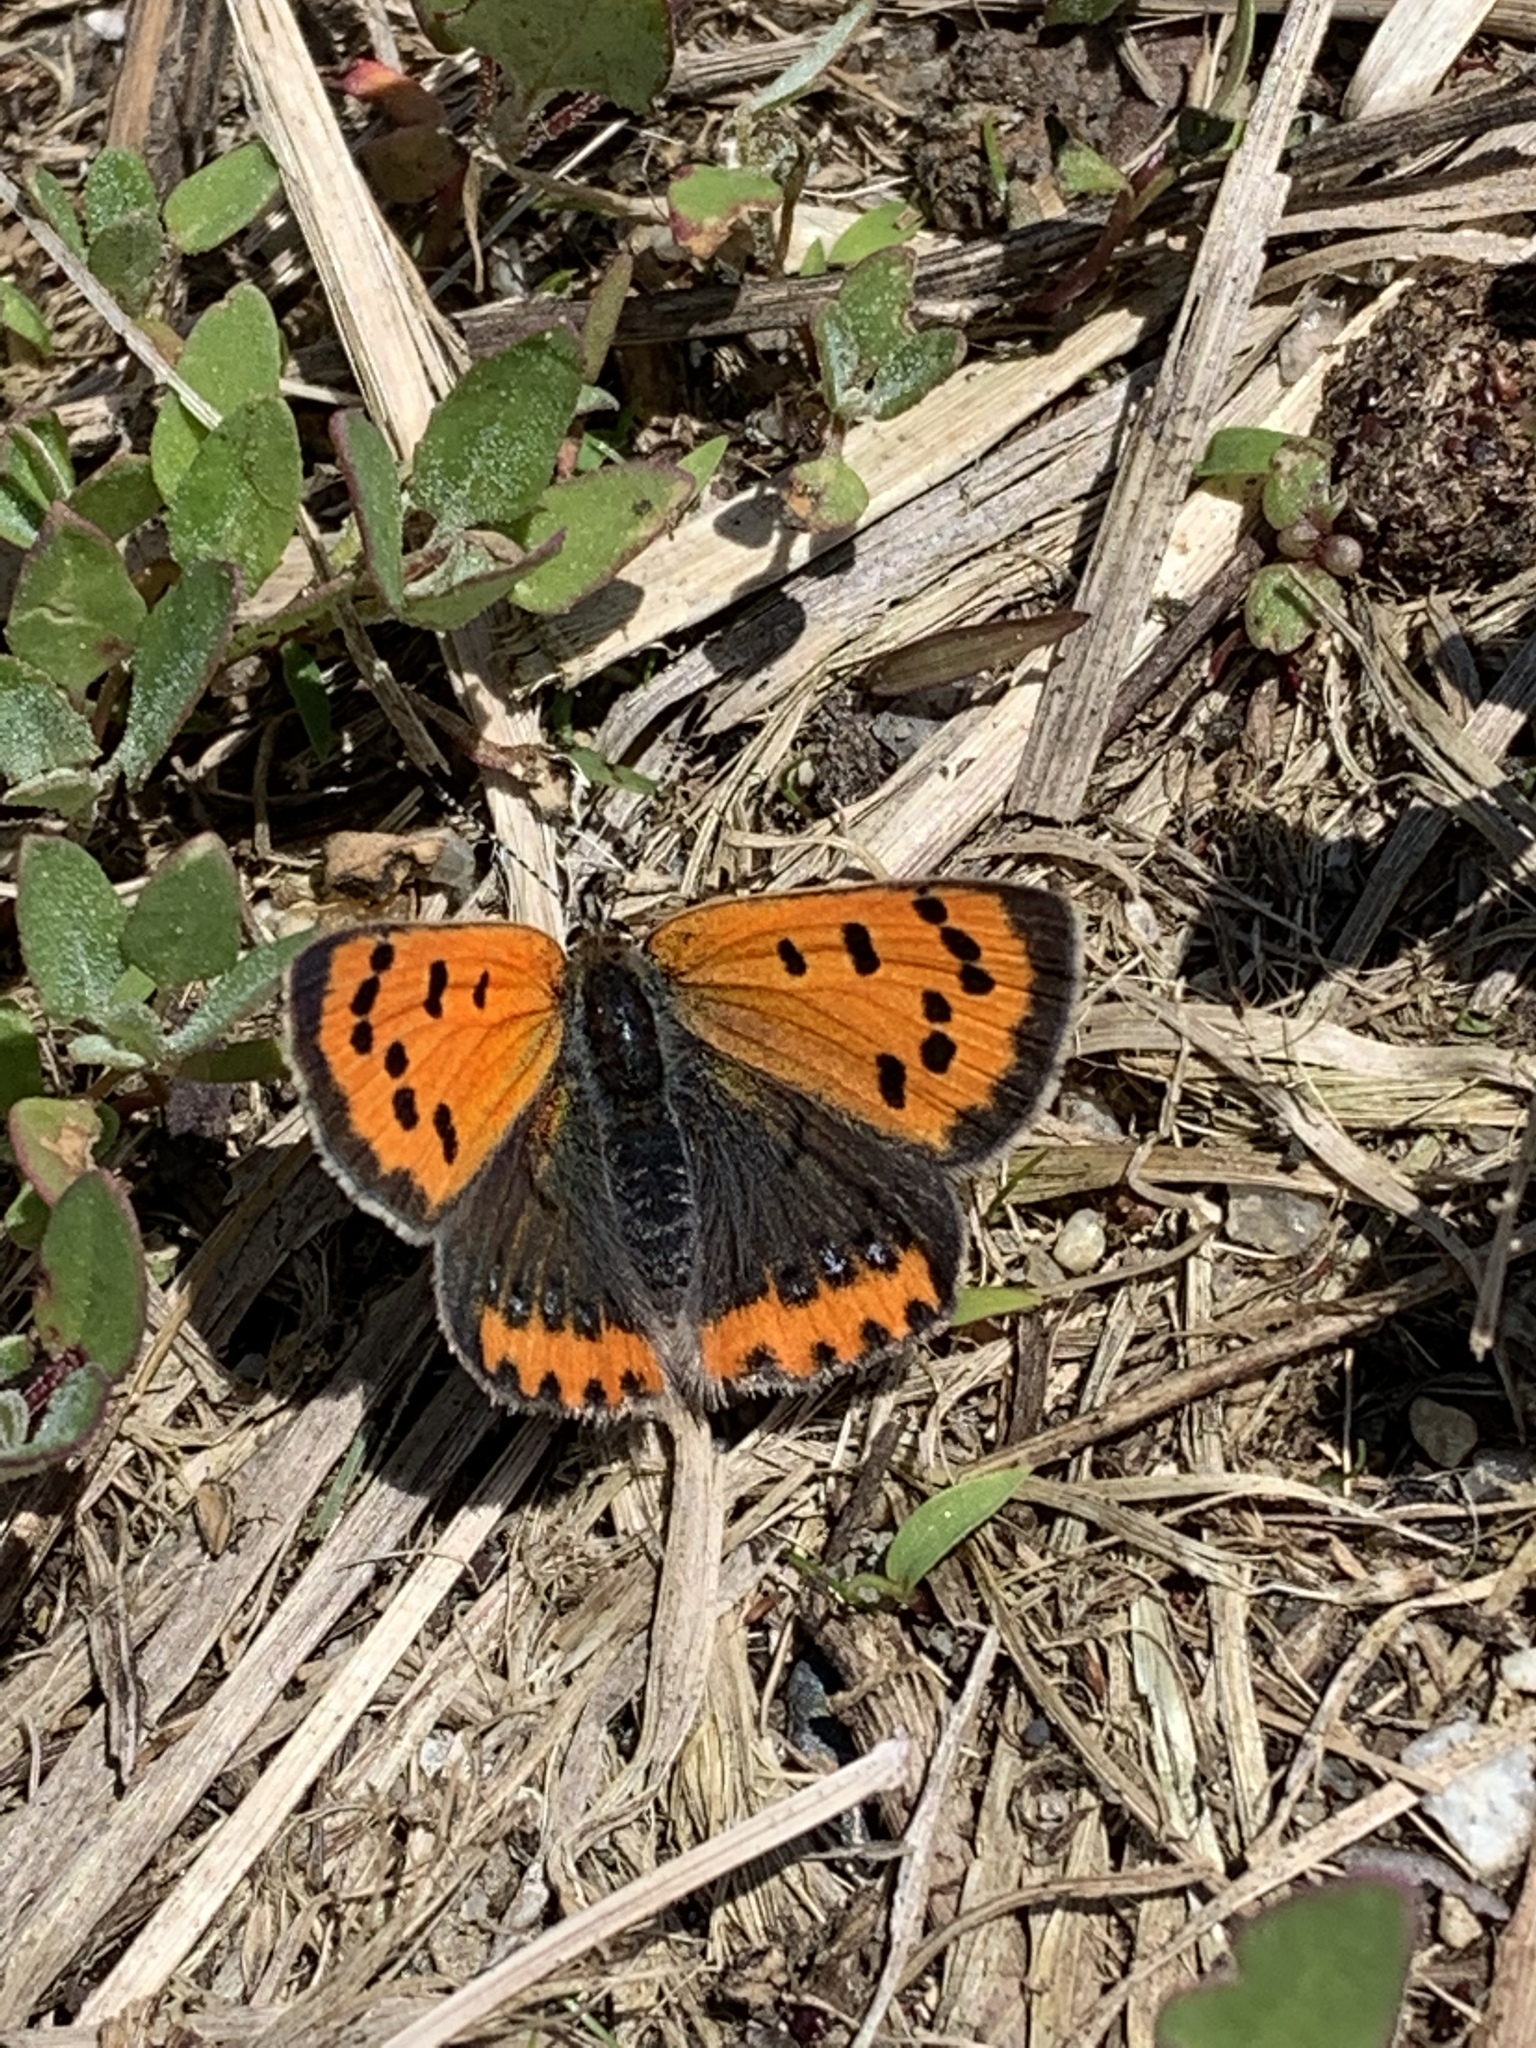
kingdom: Animalia
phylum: Arthropoda
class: Insecta
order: Lepidoptera
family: Lycaenidae
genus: Lycaena
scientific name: Lycaena hypophlaeas
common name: American copper
